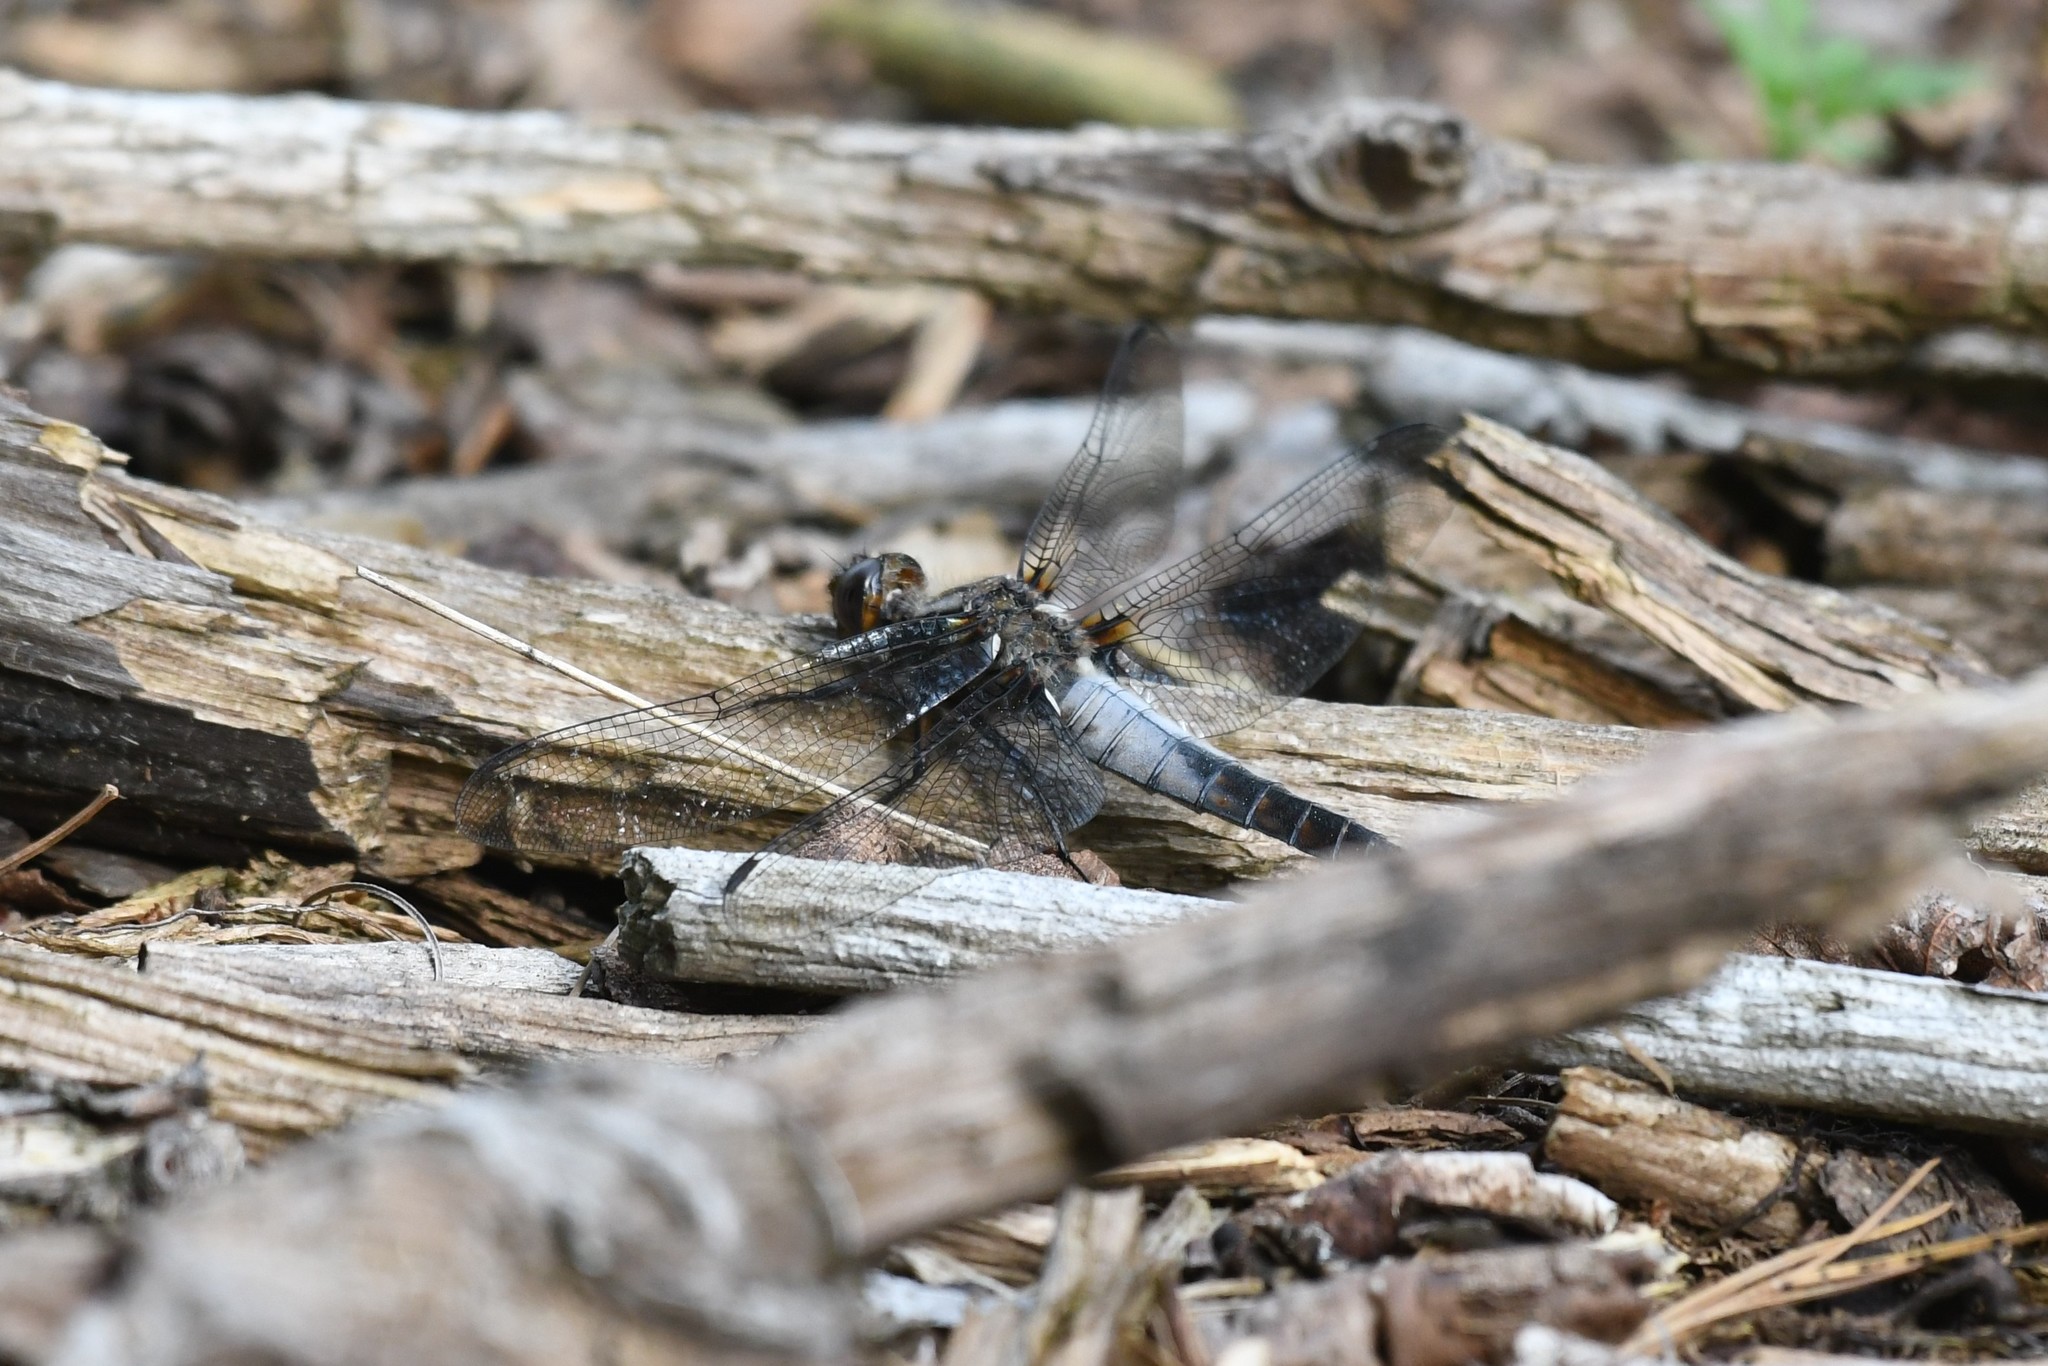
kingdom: Animalia
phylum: Arthropoda
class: Insecta
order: Odonata
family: Libellulidae
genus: Ladona
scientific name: Ladona julia
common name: Chalk-fronted corporal
